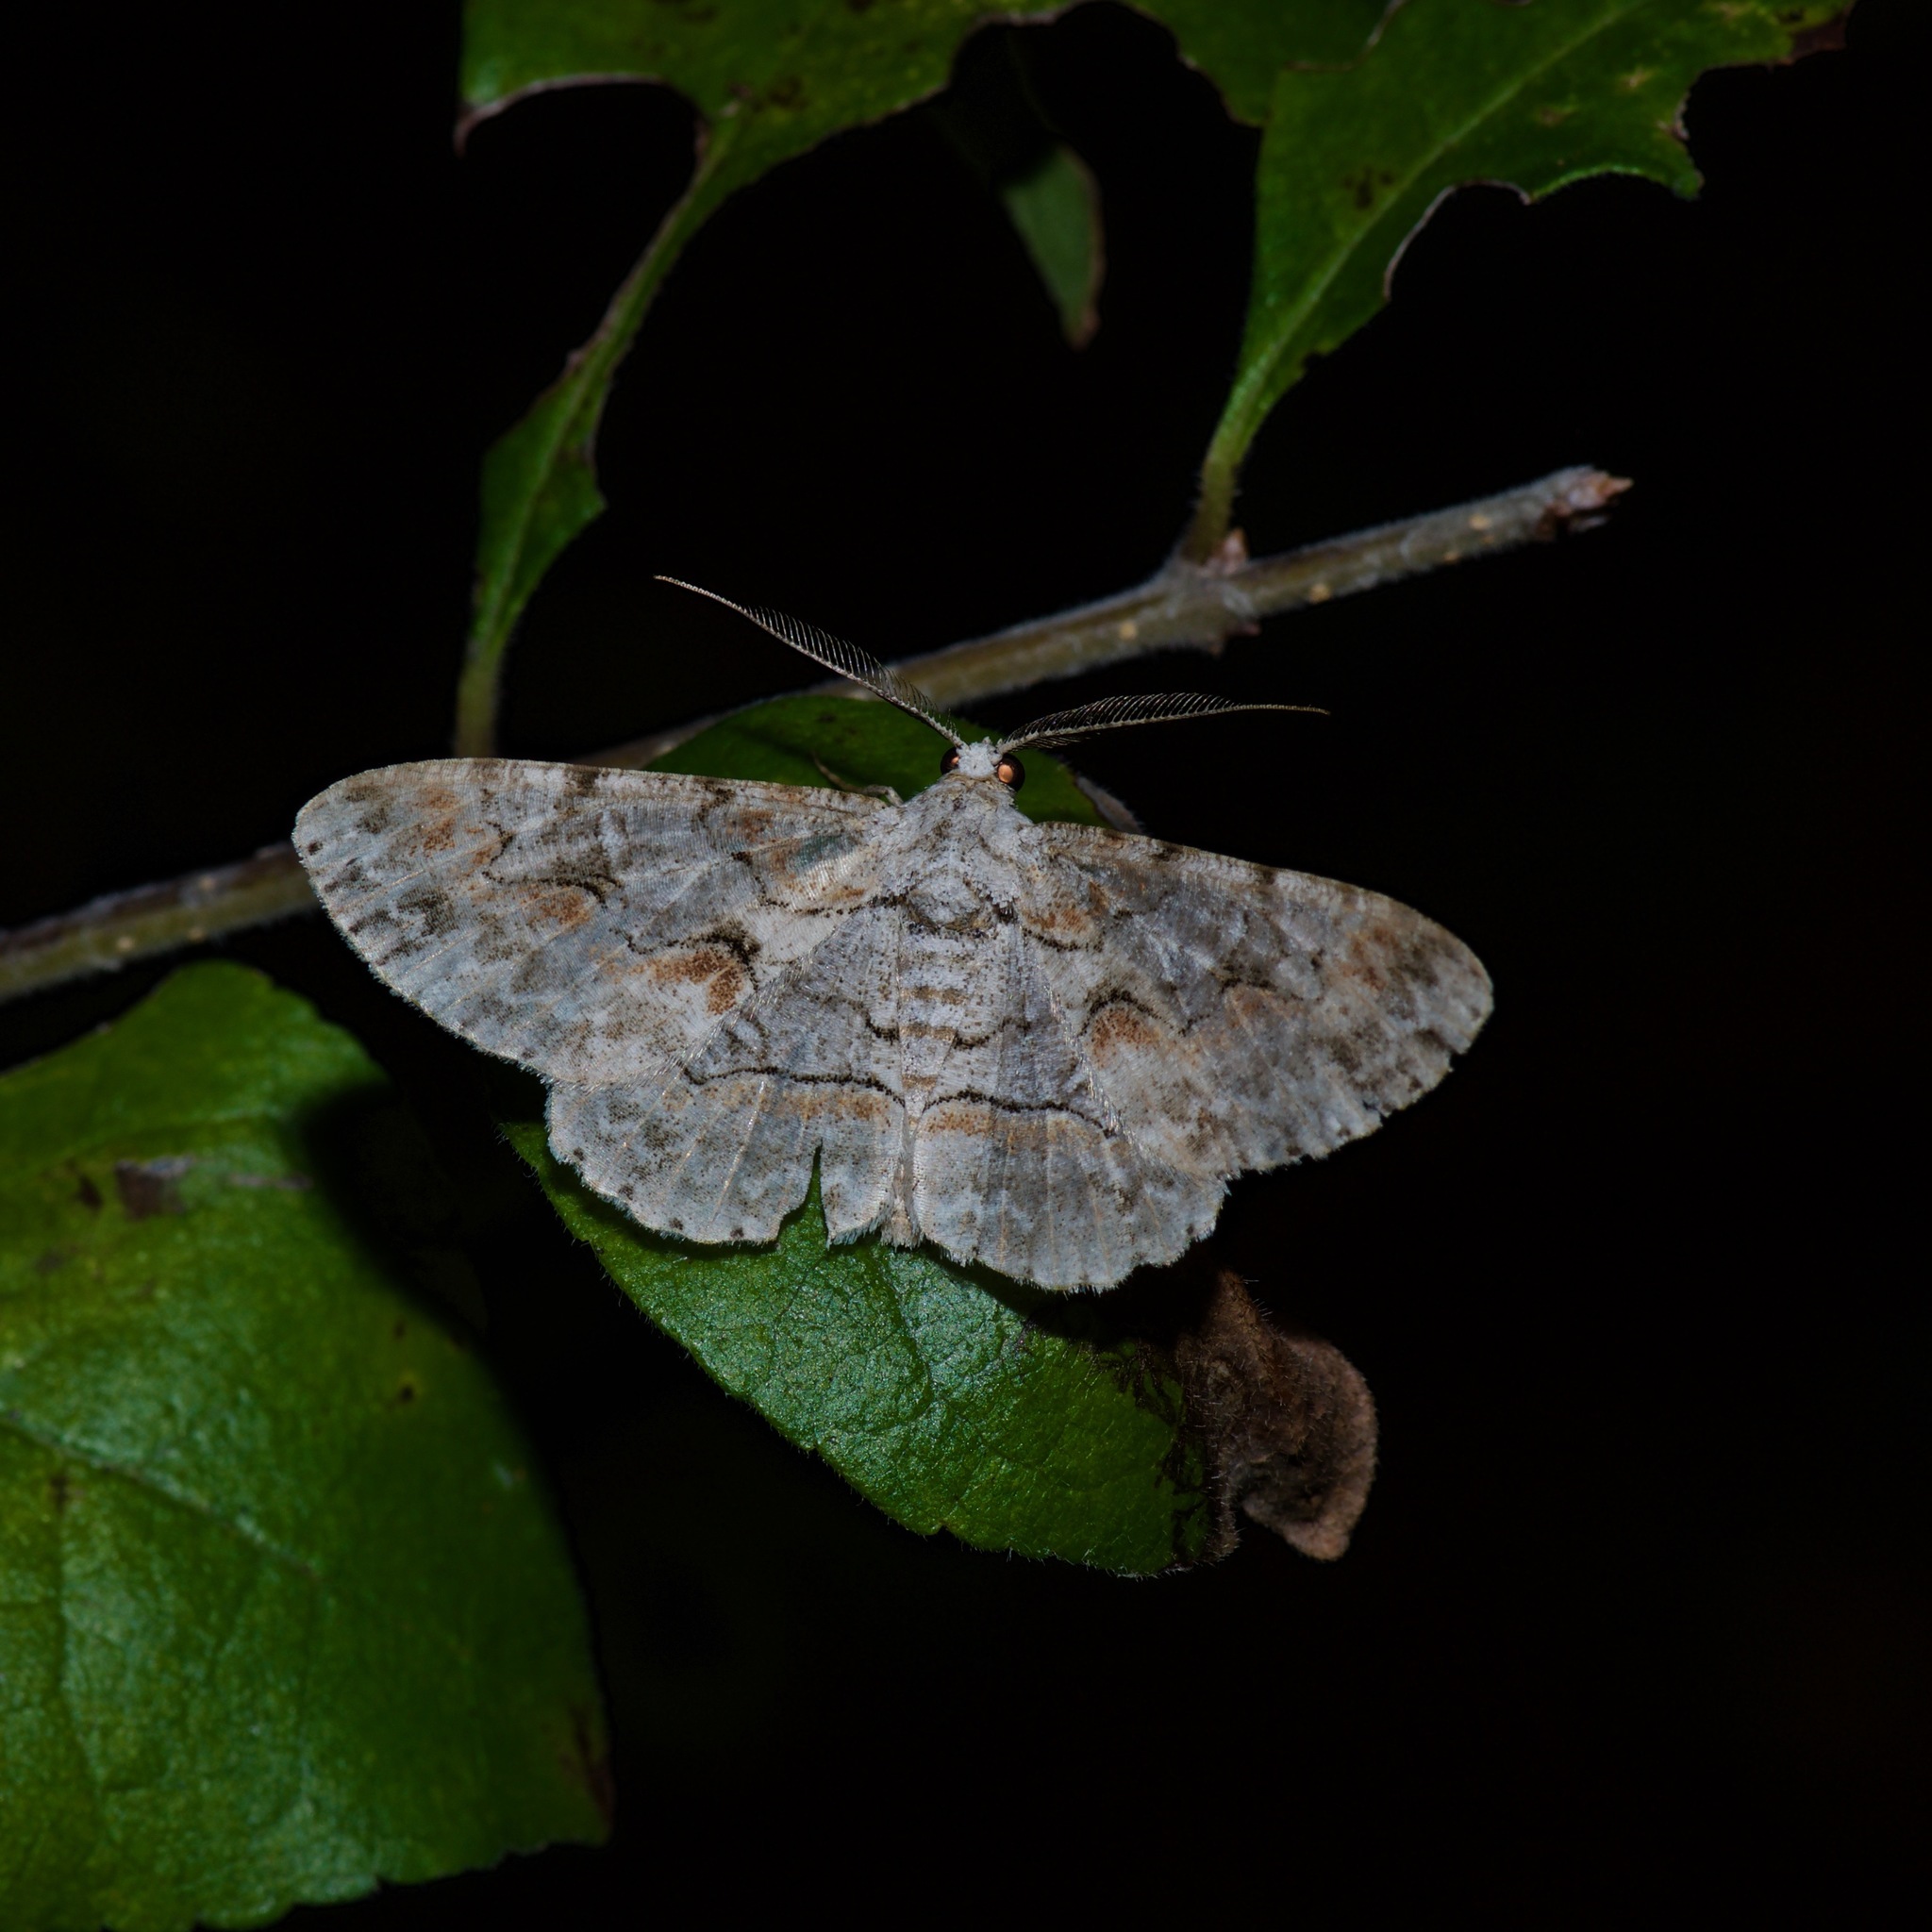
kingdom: Animalia
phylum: Arthropoda
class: Insecta
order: Lepidoptera
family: Geometridae
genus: Iridopsis
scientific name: Iridopsis defectaria
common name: Brown-shaded gray
